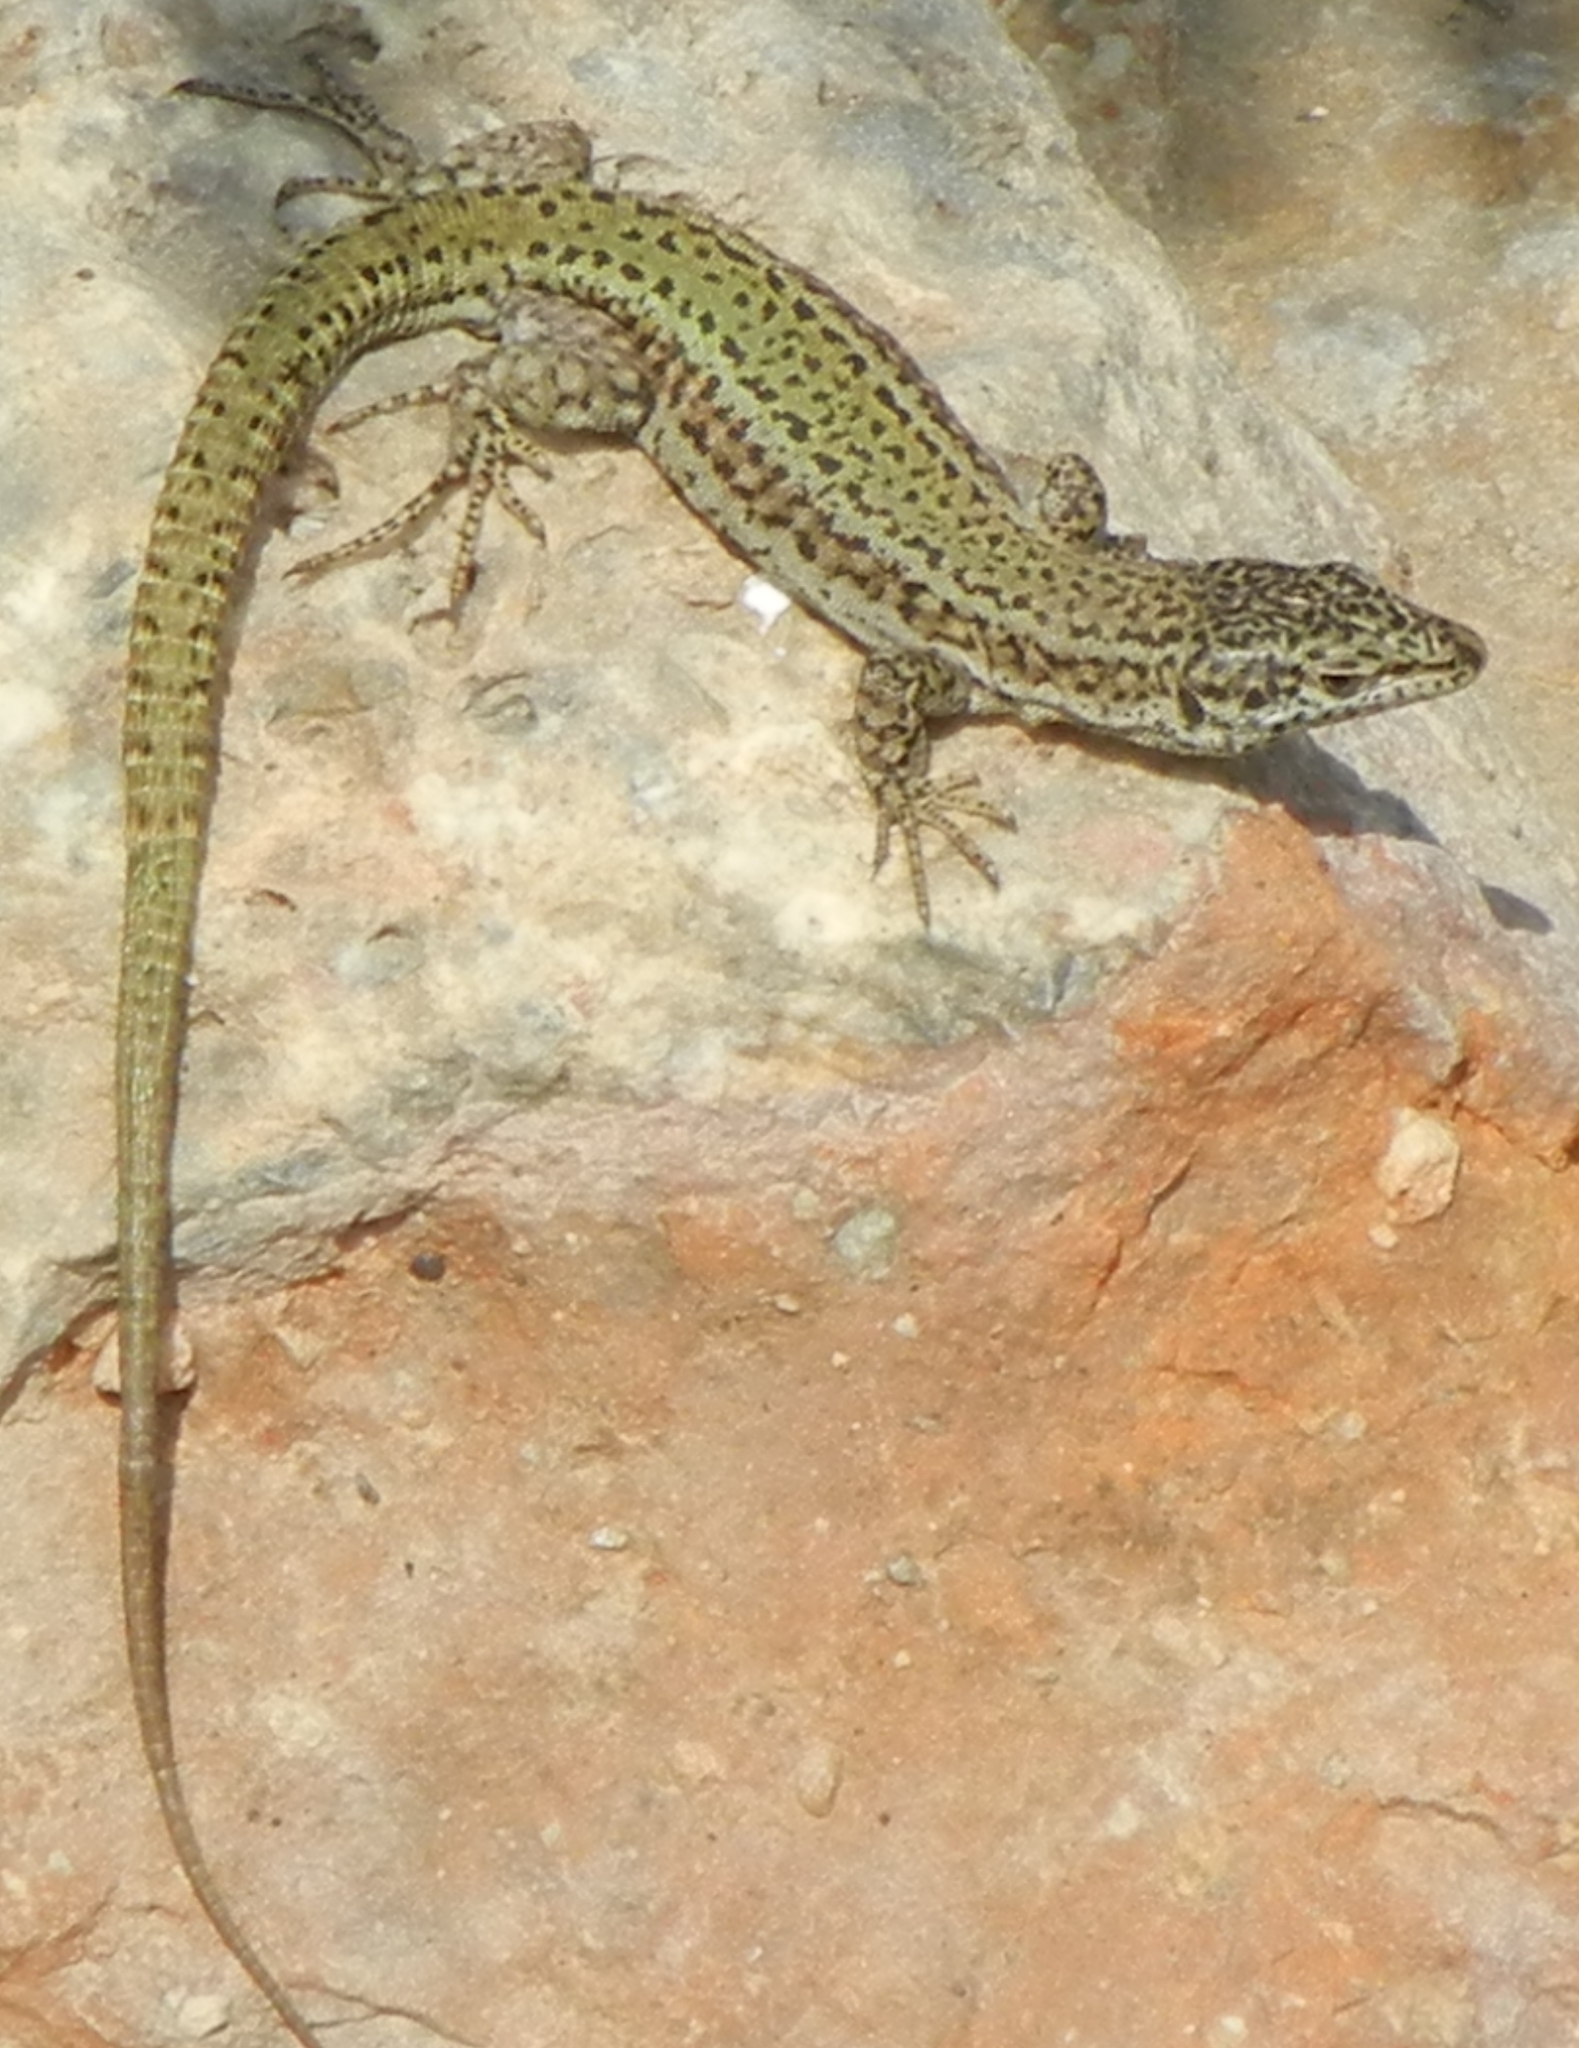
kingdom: Animalia
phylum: Chordata
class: Squamata
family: Lacertidae
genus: Podarcis
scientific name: Podarcis vaucheri
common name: Vaucher's wall lizard
